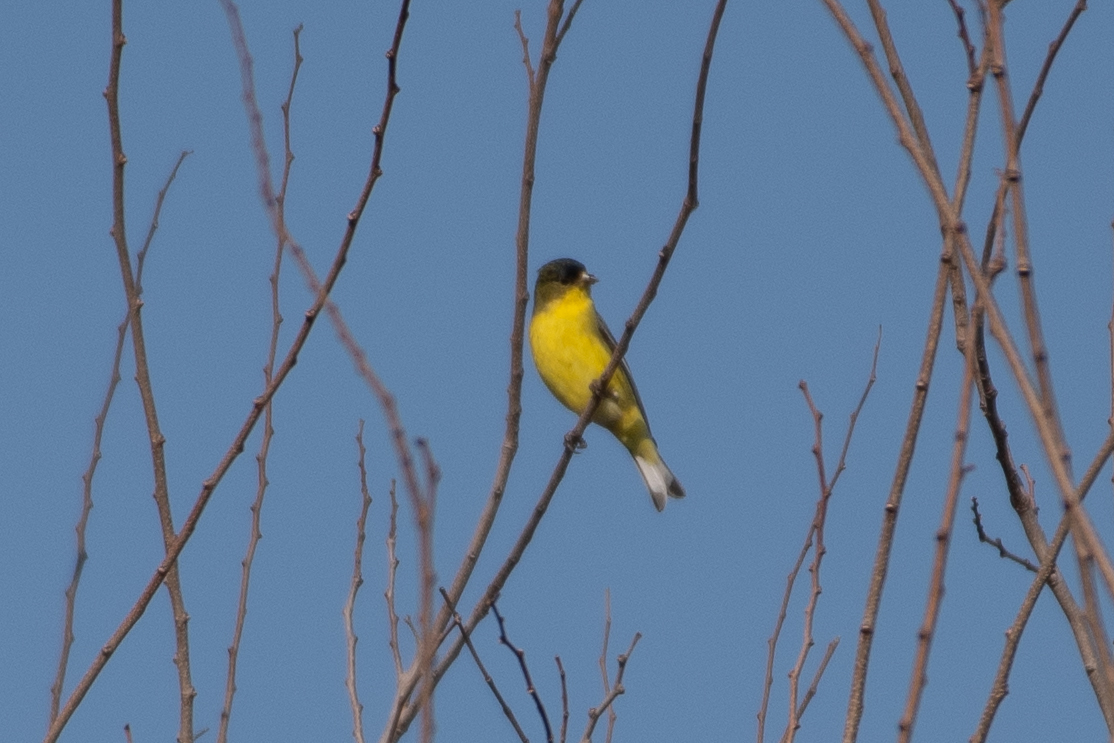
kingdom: Animalia
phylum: Chordata
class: Aves
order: Passeriformes
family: Fringillidae
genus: Spinus
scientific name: Spinus psaltria
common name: Lesser goldfinch
